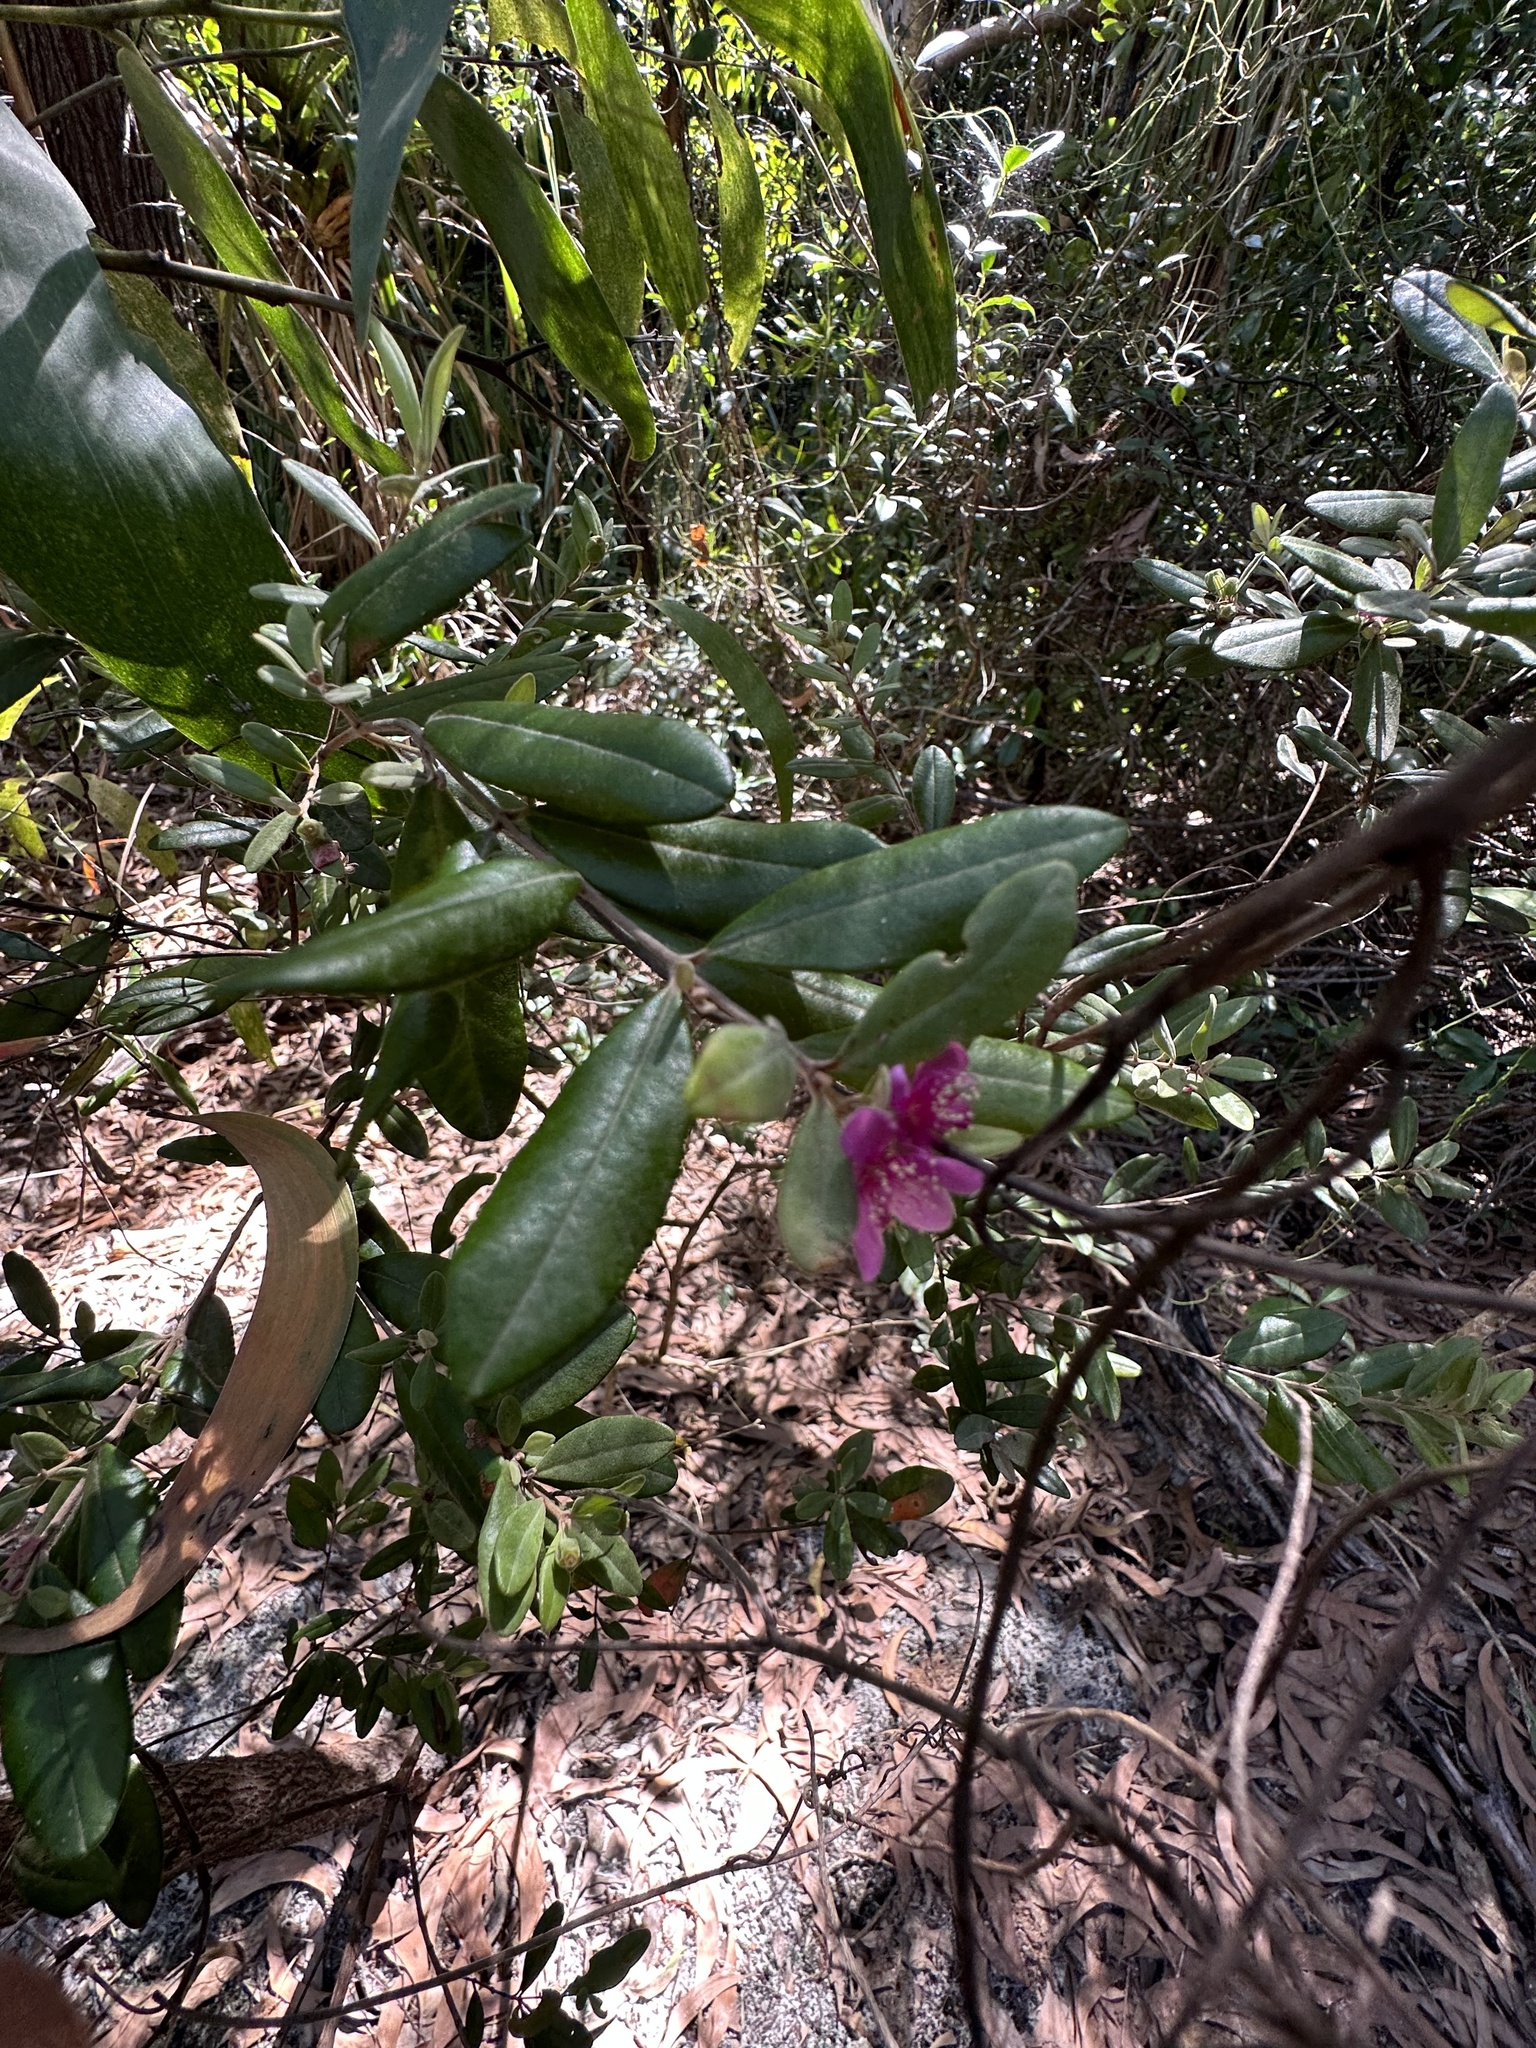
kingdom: Plantae
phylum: Tracheophyta
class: Magnoliopsida
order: Myrtales
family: Myrtaceae
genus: Lithomyrtus
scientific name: Lithomyrtus obtusa
